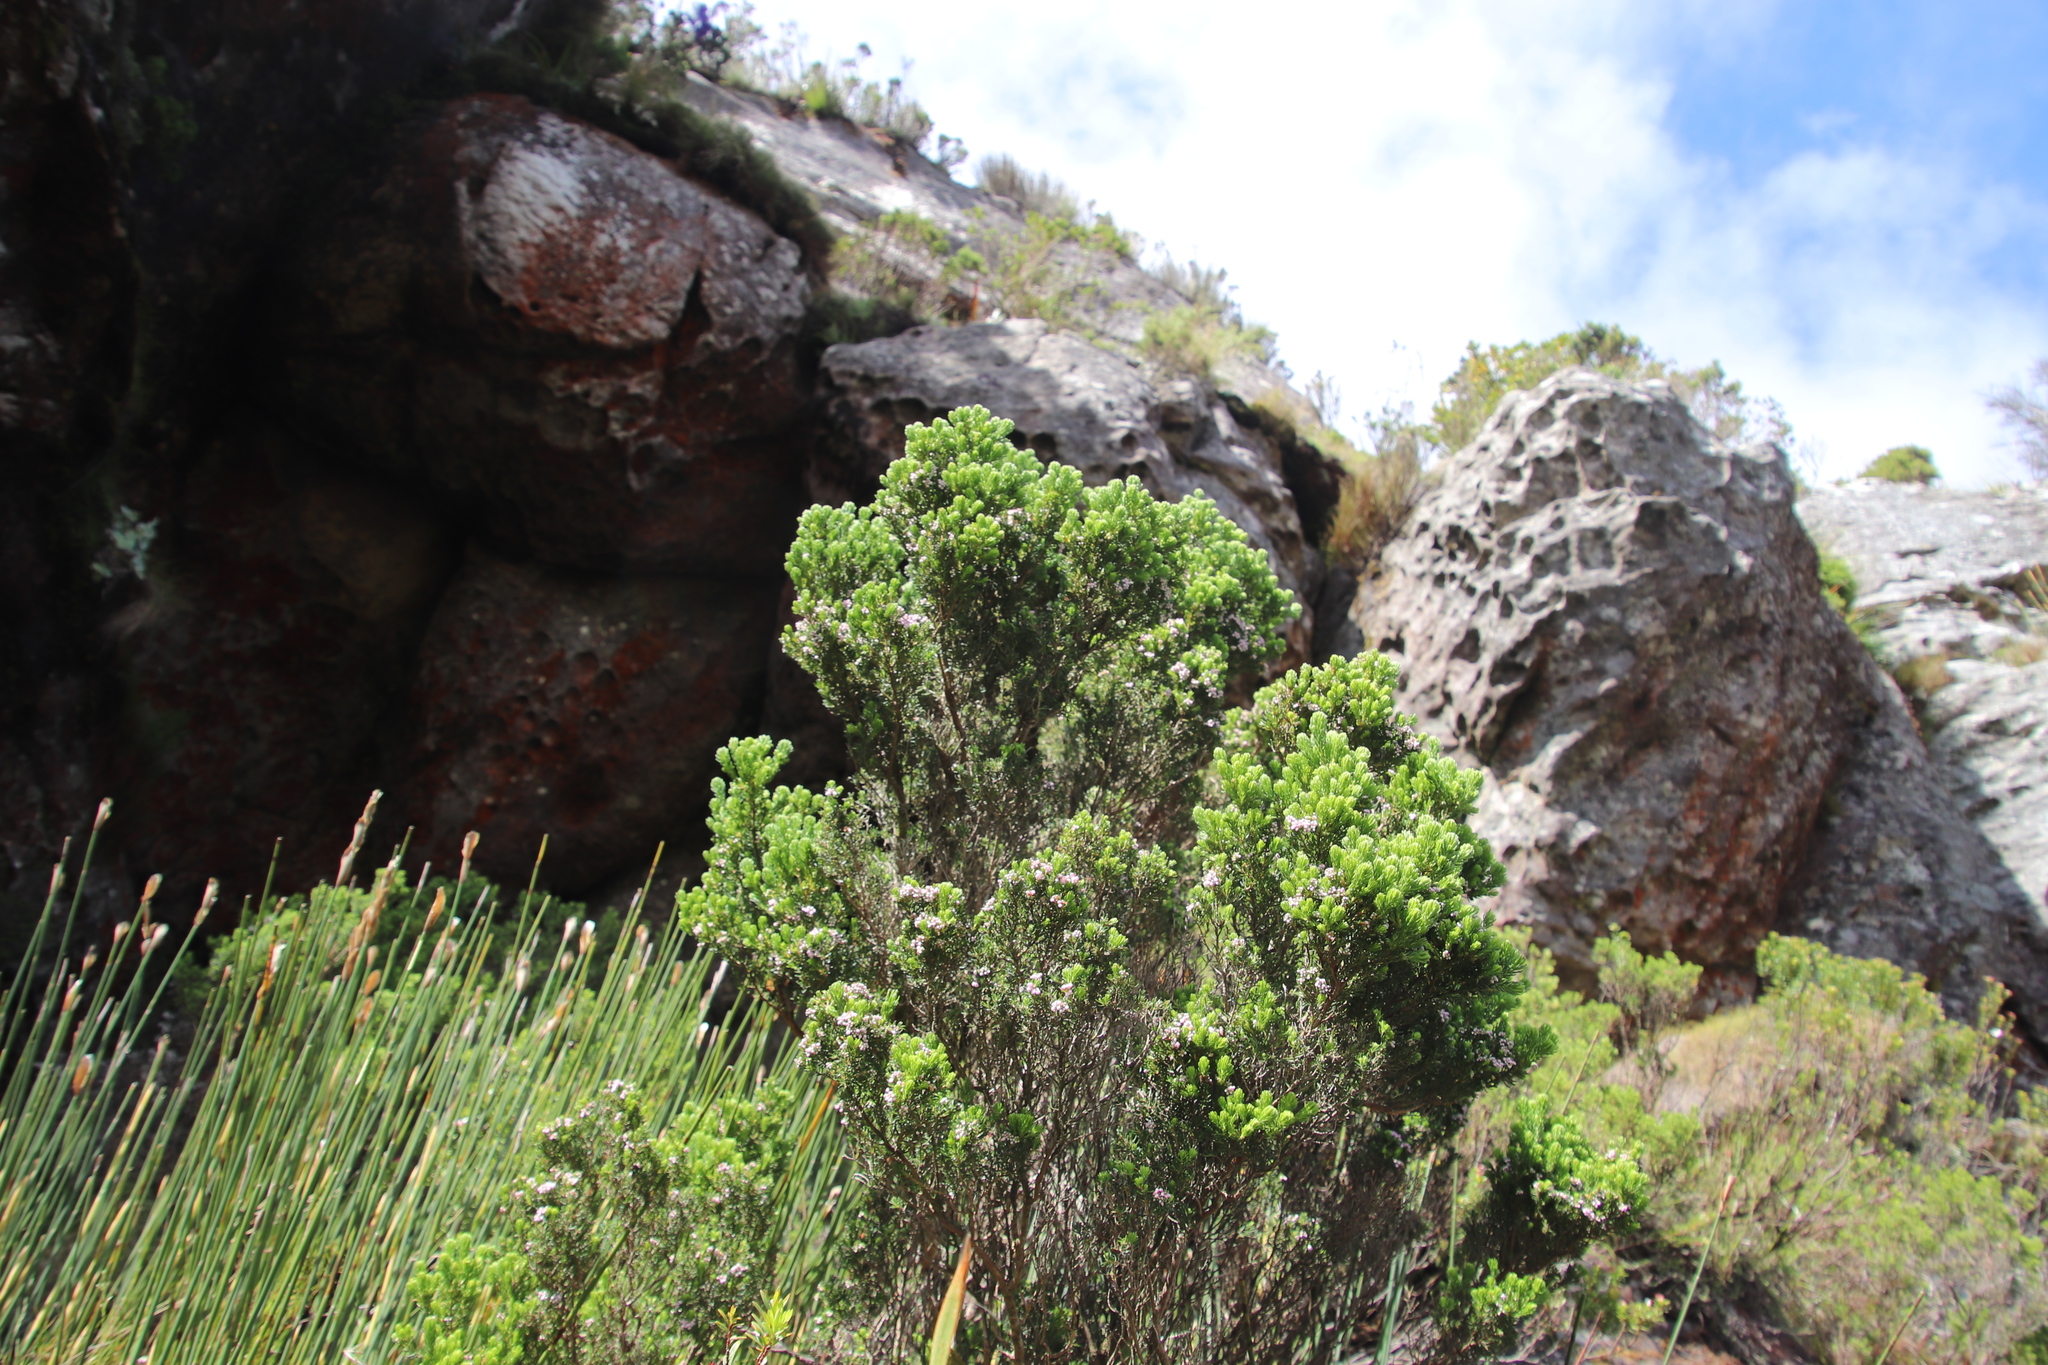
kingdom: Plantae
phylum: Tracheophyta
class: Magnoliopsida
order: Ericales
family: Ericaceae
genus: Erica
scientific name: Erica caterviflora
